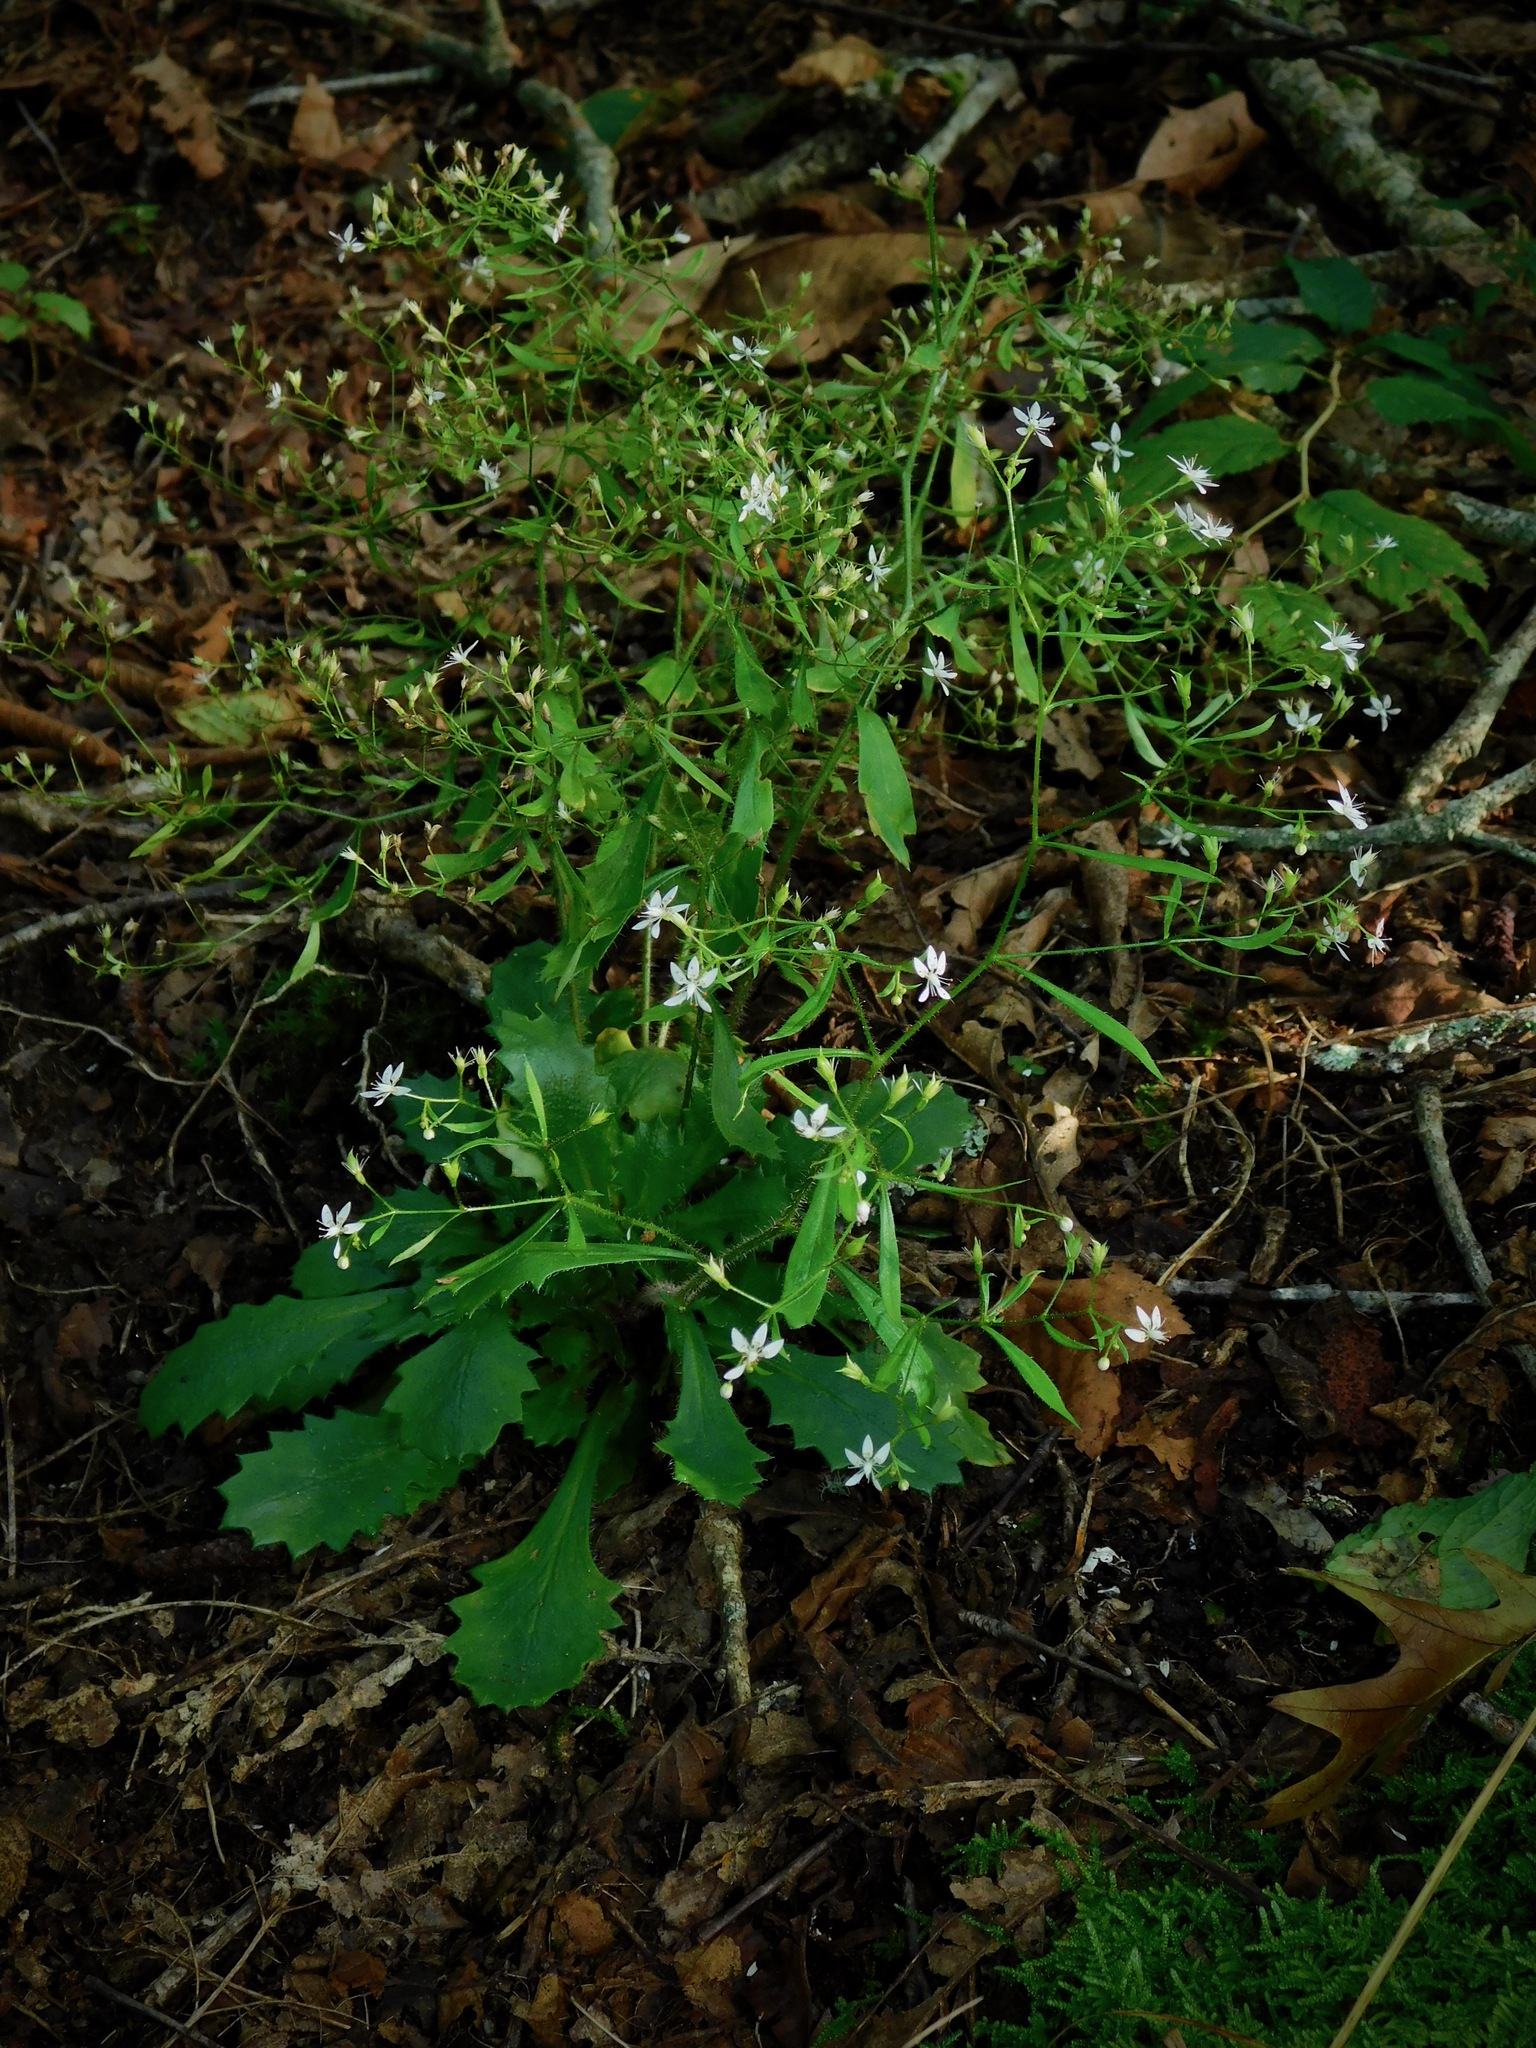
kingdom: Plantae
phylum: Tracheophyta
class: Magnoliopsida
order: Saxifragales
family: Saxifragaceae
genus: Micranthes
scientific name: Micranthes petiolaris
